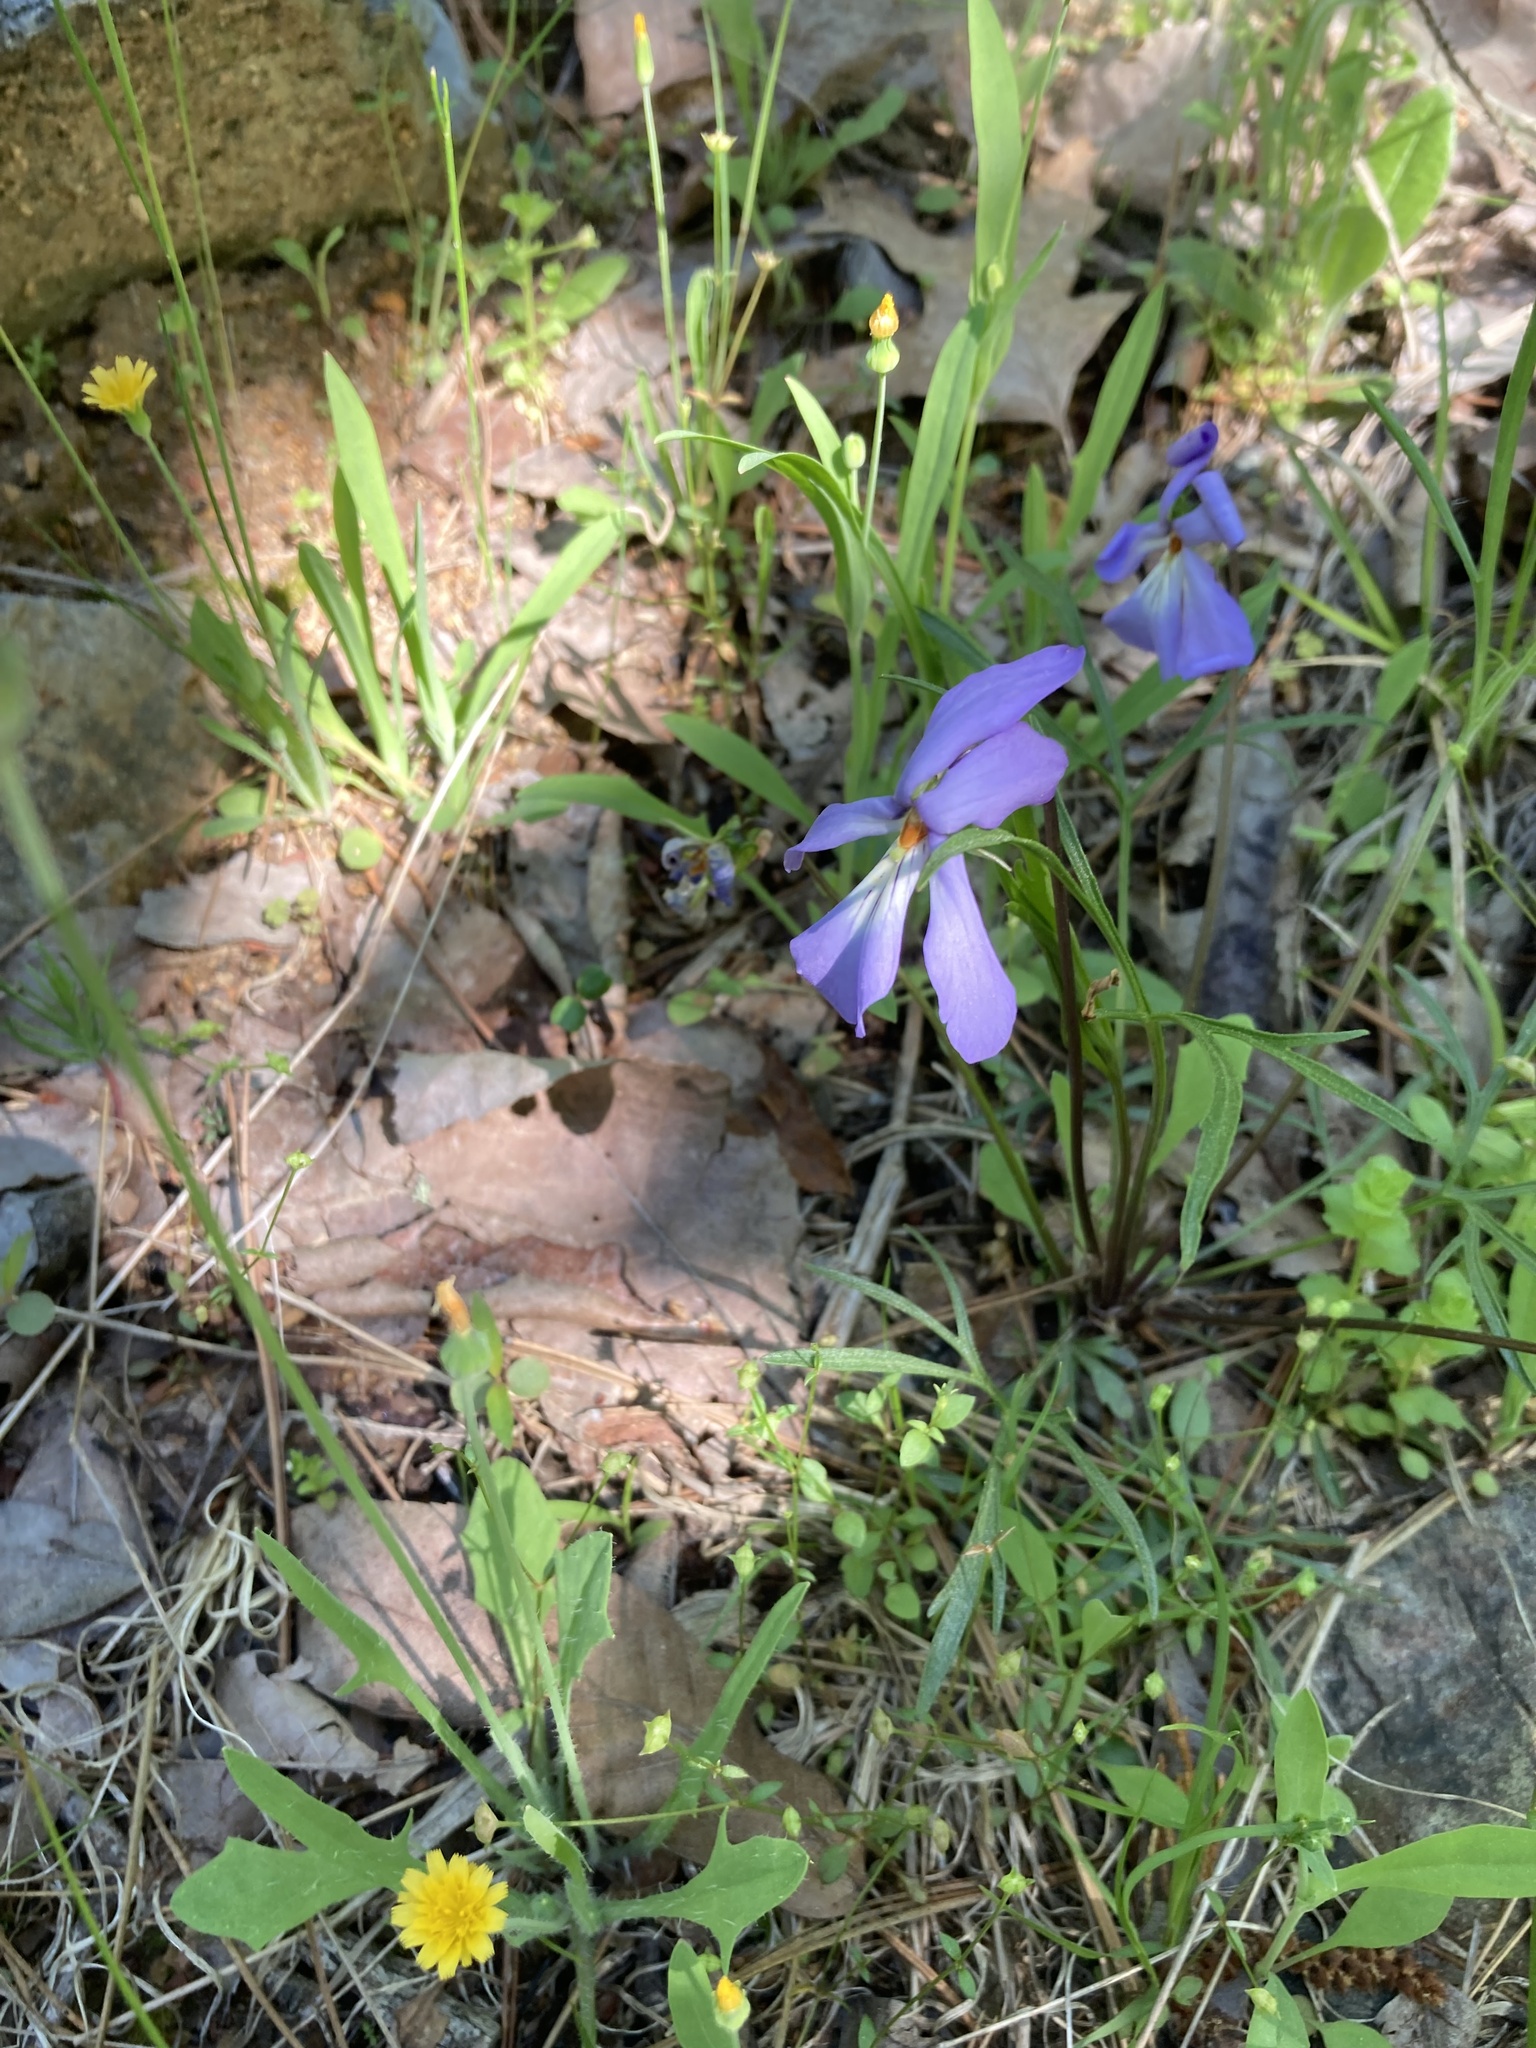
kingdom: Plantae
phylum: Tracheophyta
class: Magnoliopsida
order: Malpighiales
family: Violaceae
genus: Viola
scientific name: Viola pedata
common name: Pansy violet
